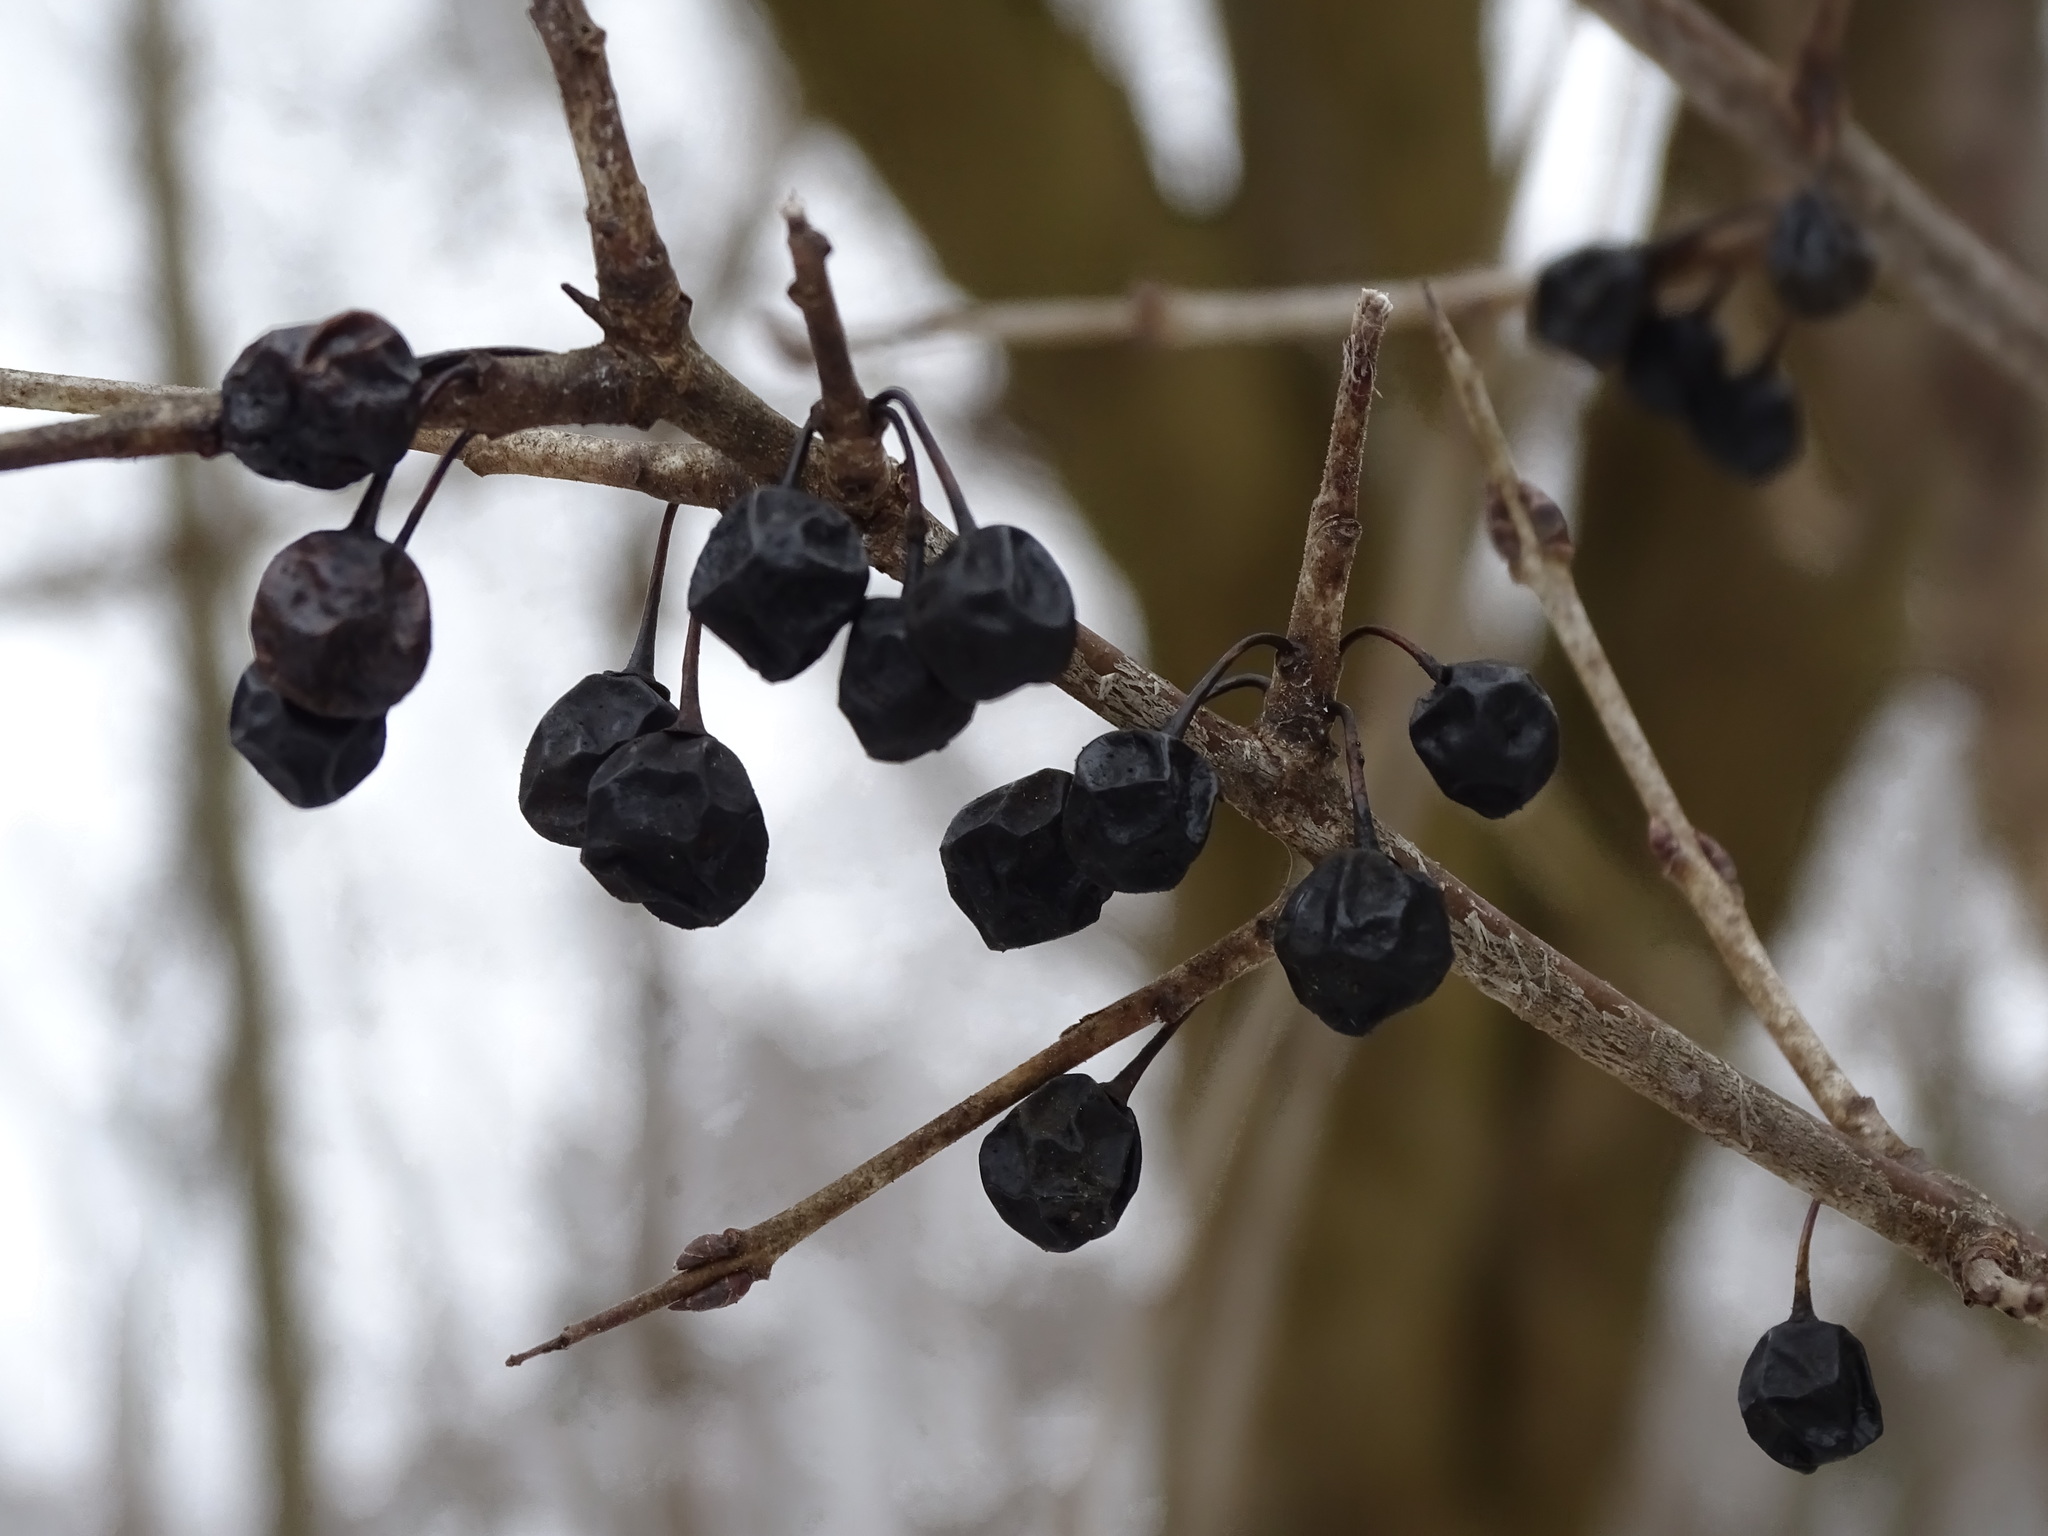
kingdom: Plantae
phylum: Tracheophyta
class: Magnoliopsida
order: Rosales
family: Rhamnaceae
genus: Rhamnus
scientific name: Rhamnus cathartica
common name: Common buckthorn
